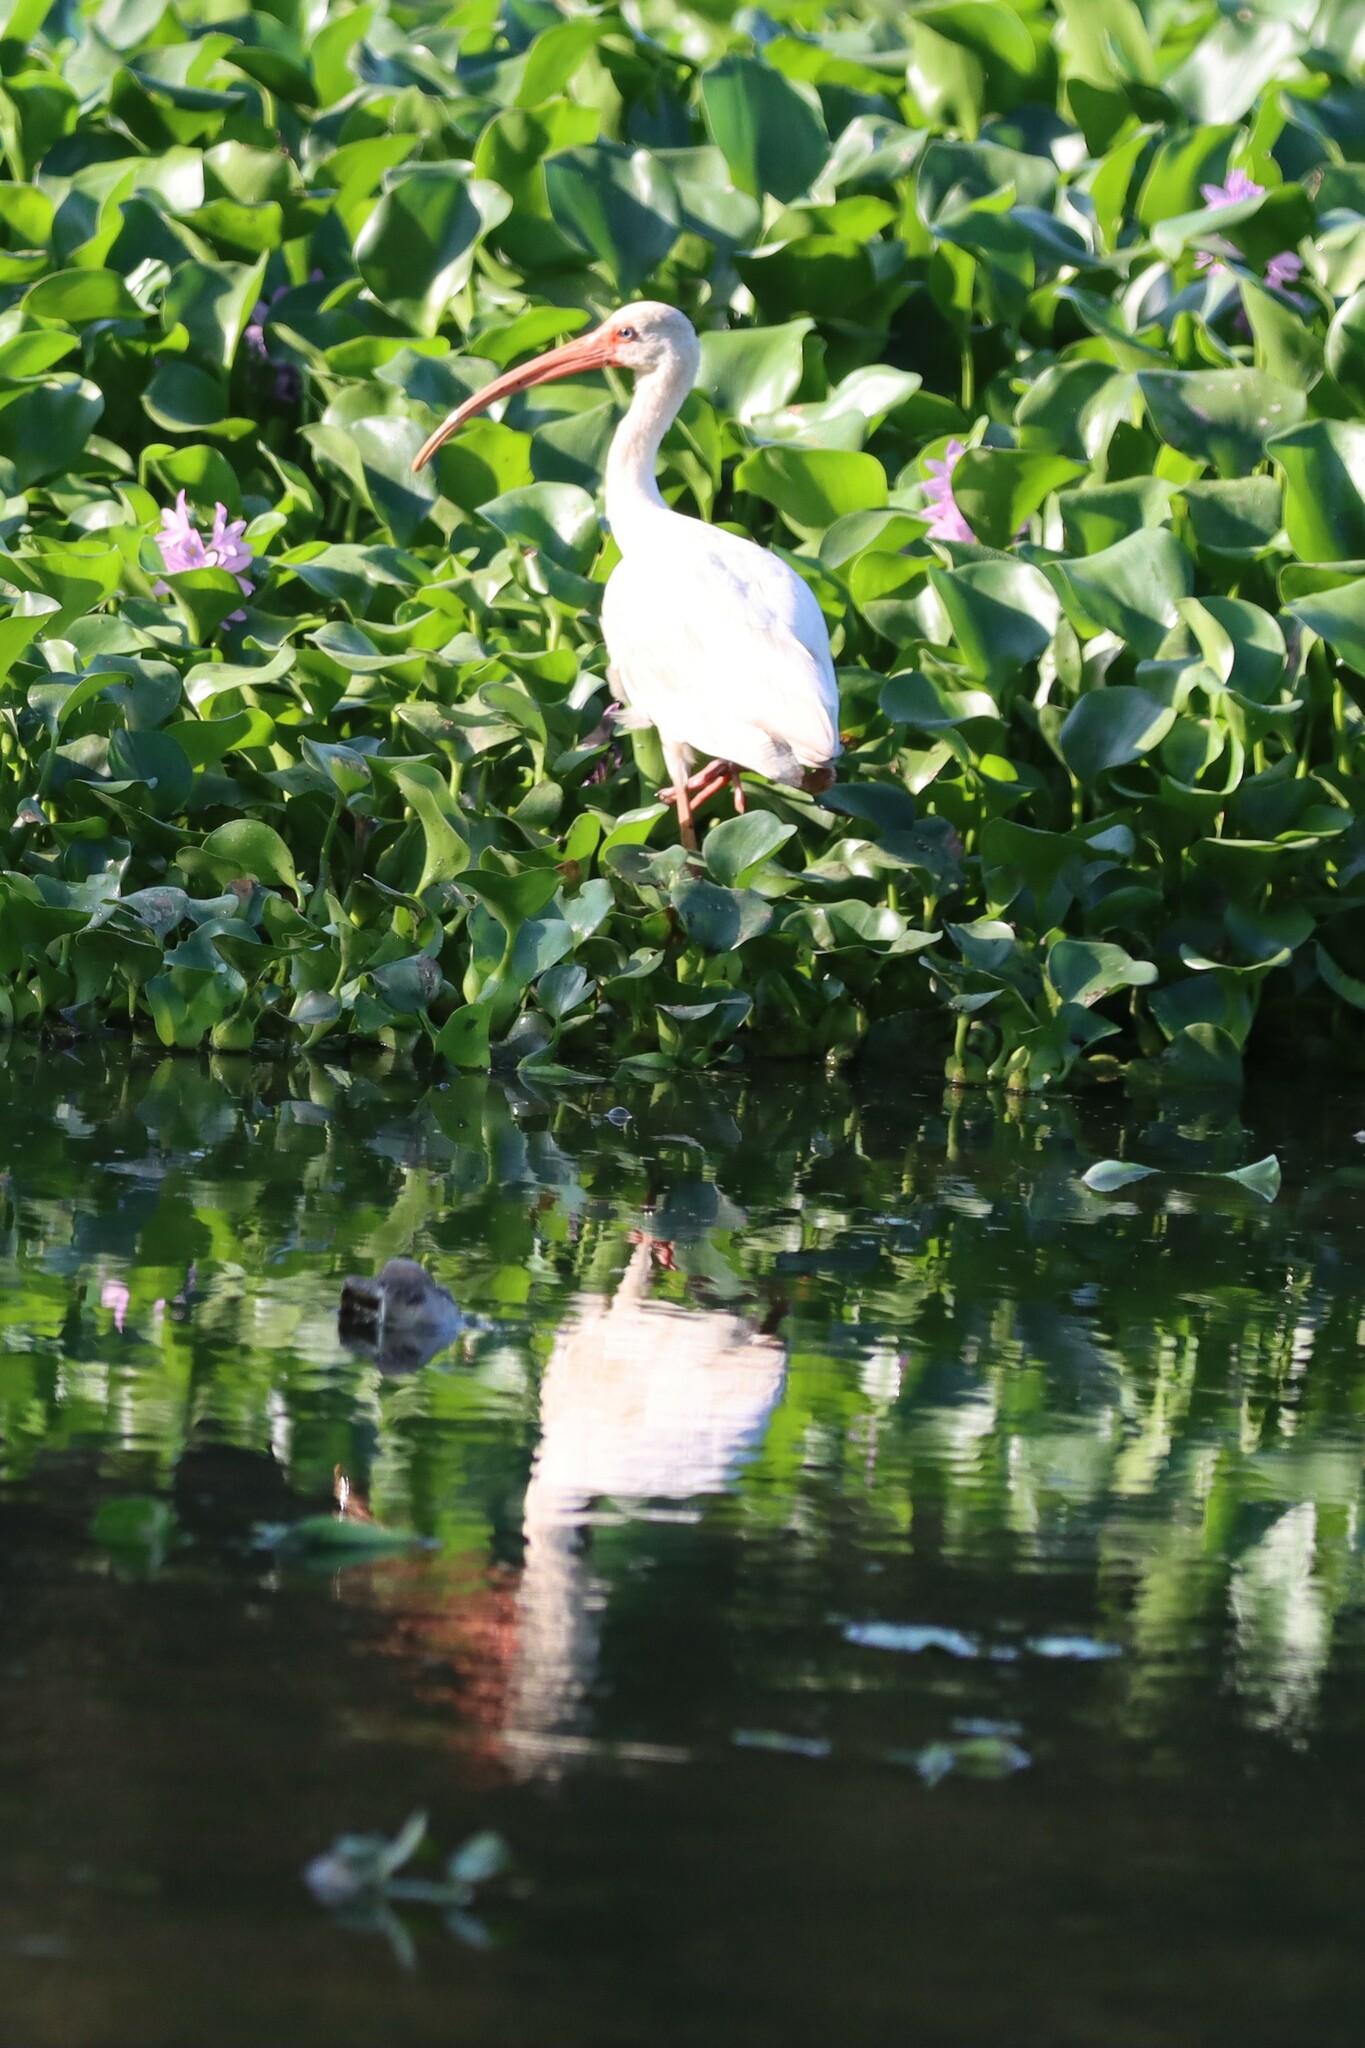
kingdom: Animalia
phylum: Chordata
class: Aves
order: Pelecaniformes
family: Threskiornithidae
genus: Eudocimus
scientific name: Eudocimus albus
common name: White ibis
